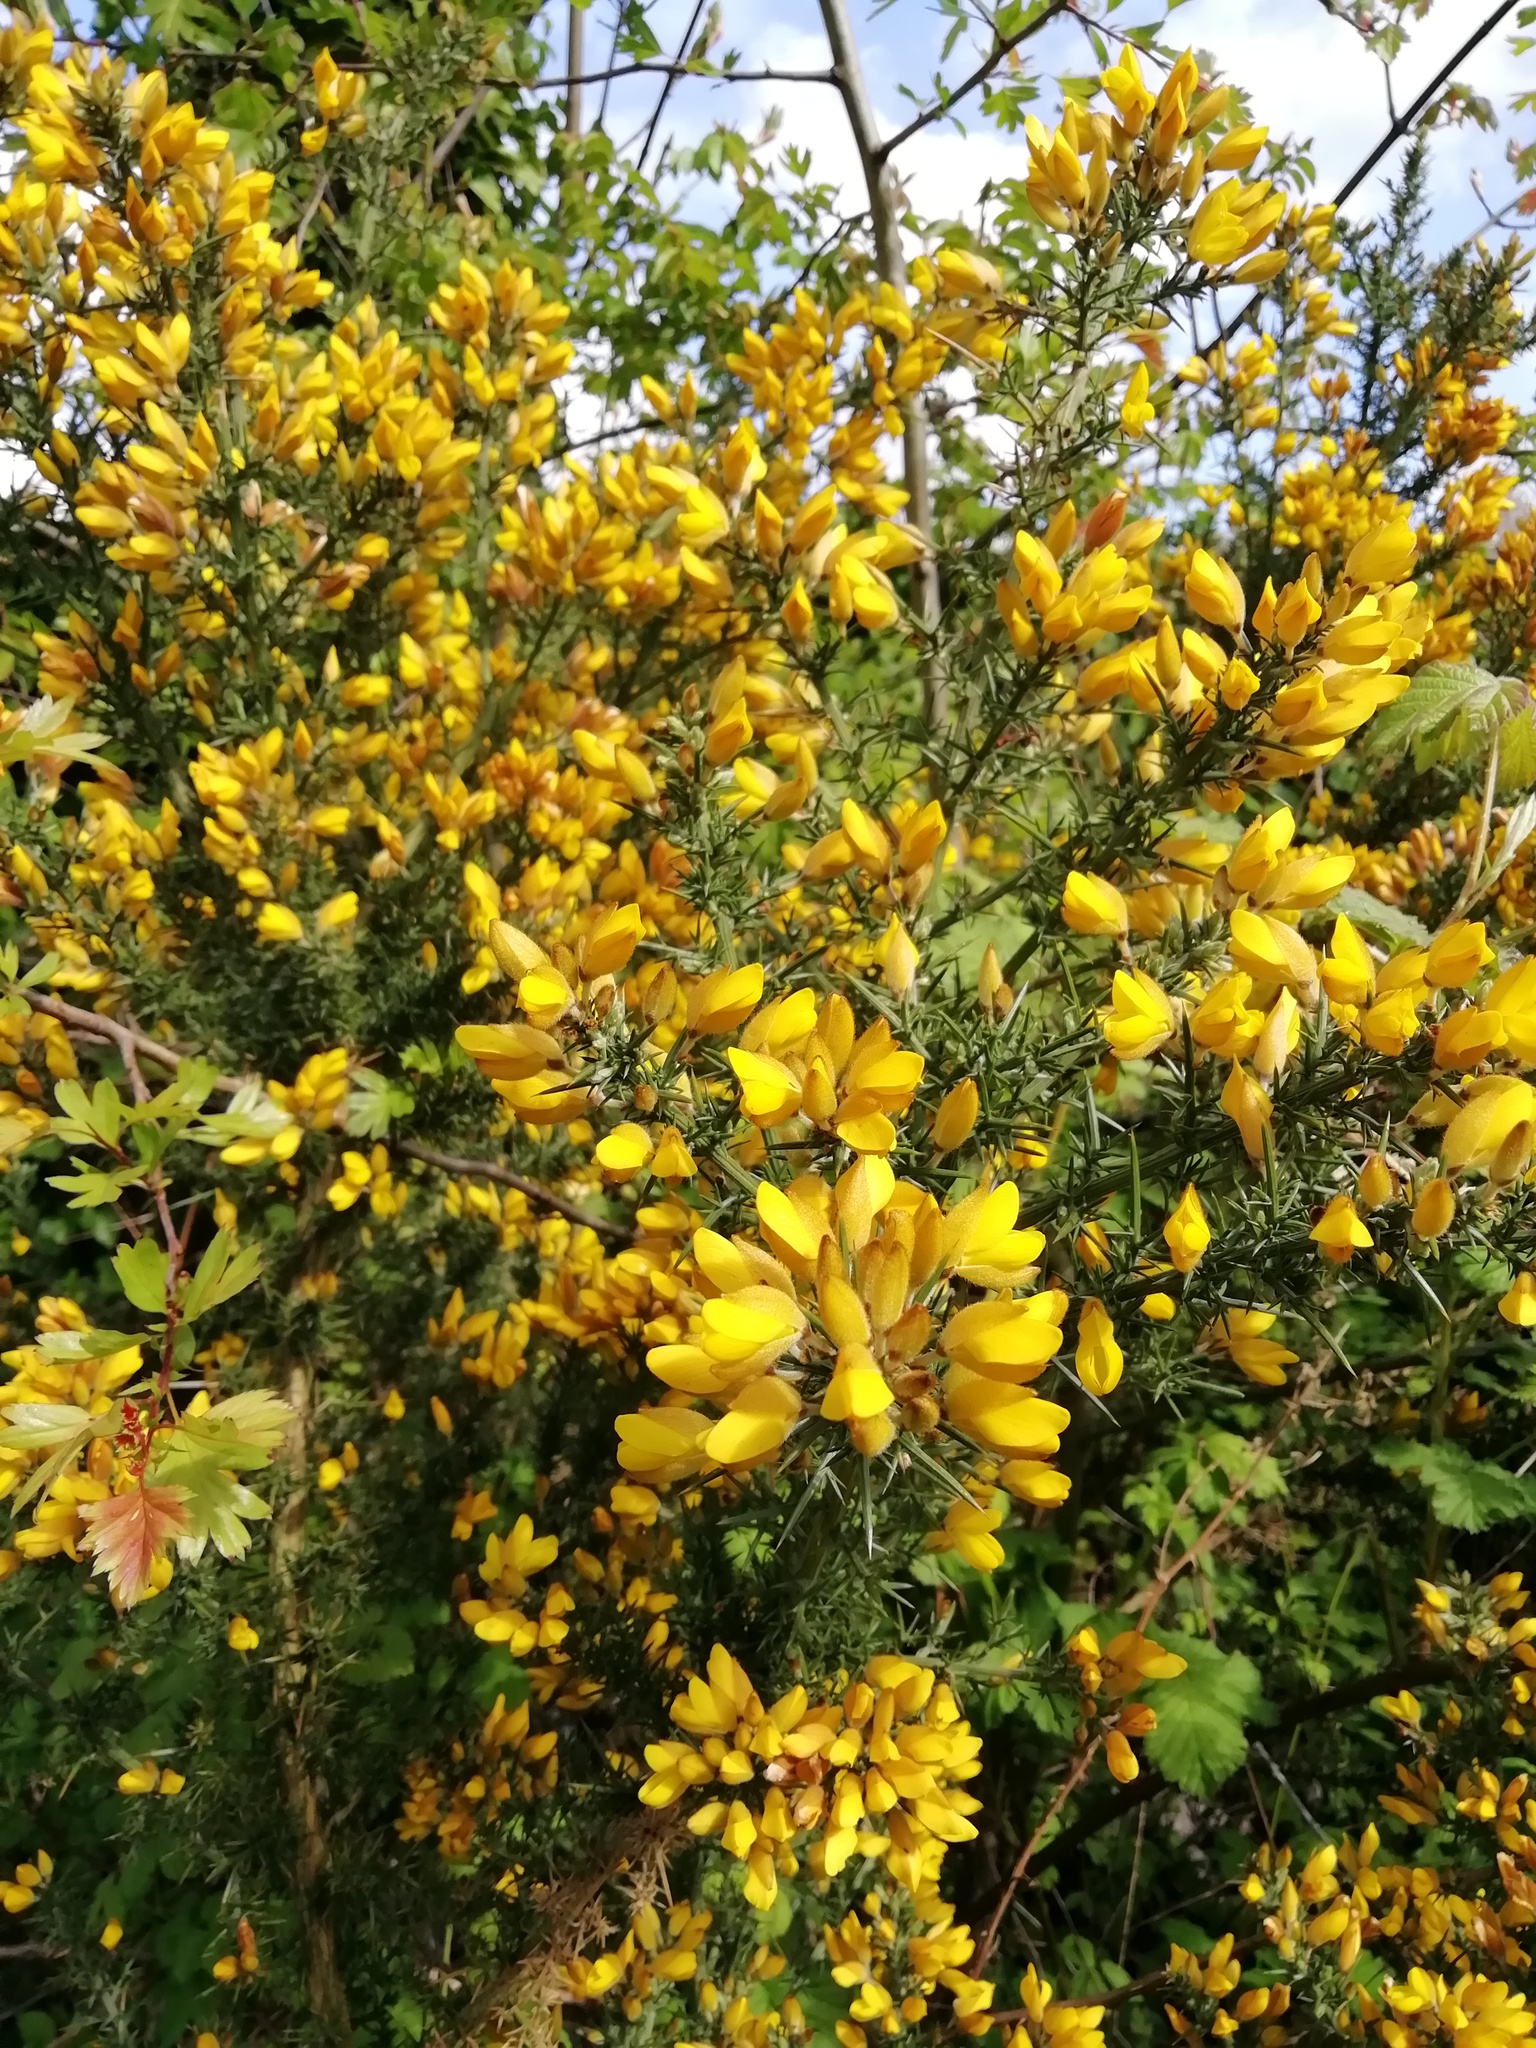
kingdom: Plantae
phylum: Tracheophyta
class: Magnoliopsida
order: Fabales
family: Fabaceae
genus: Ulex
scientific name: Ulex europaeus
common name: Common gorse
